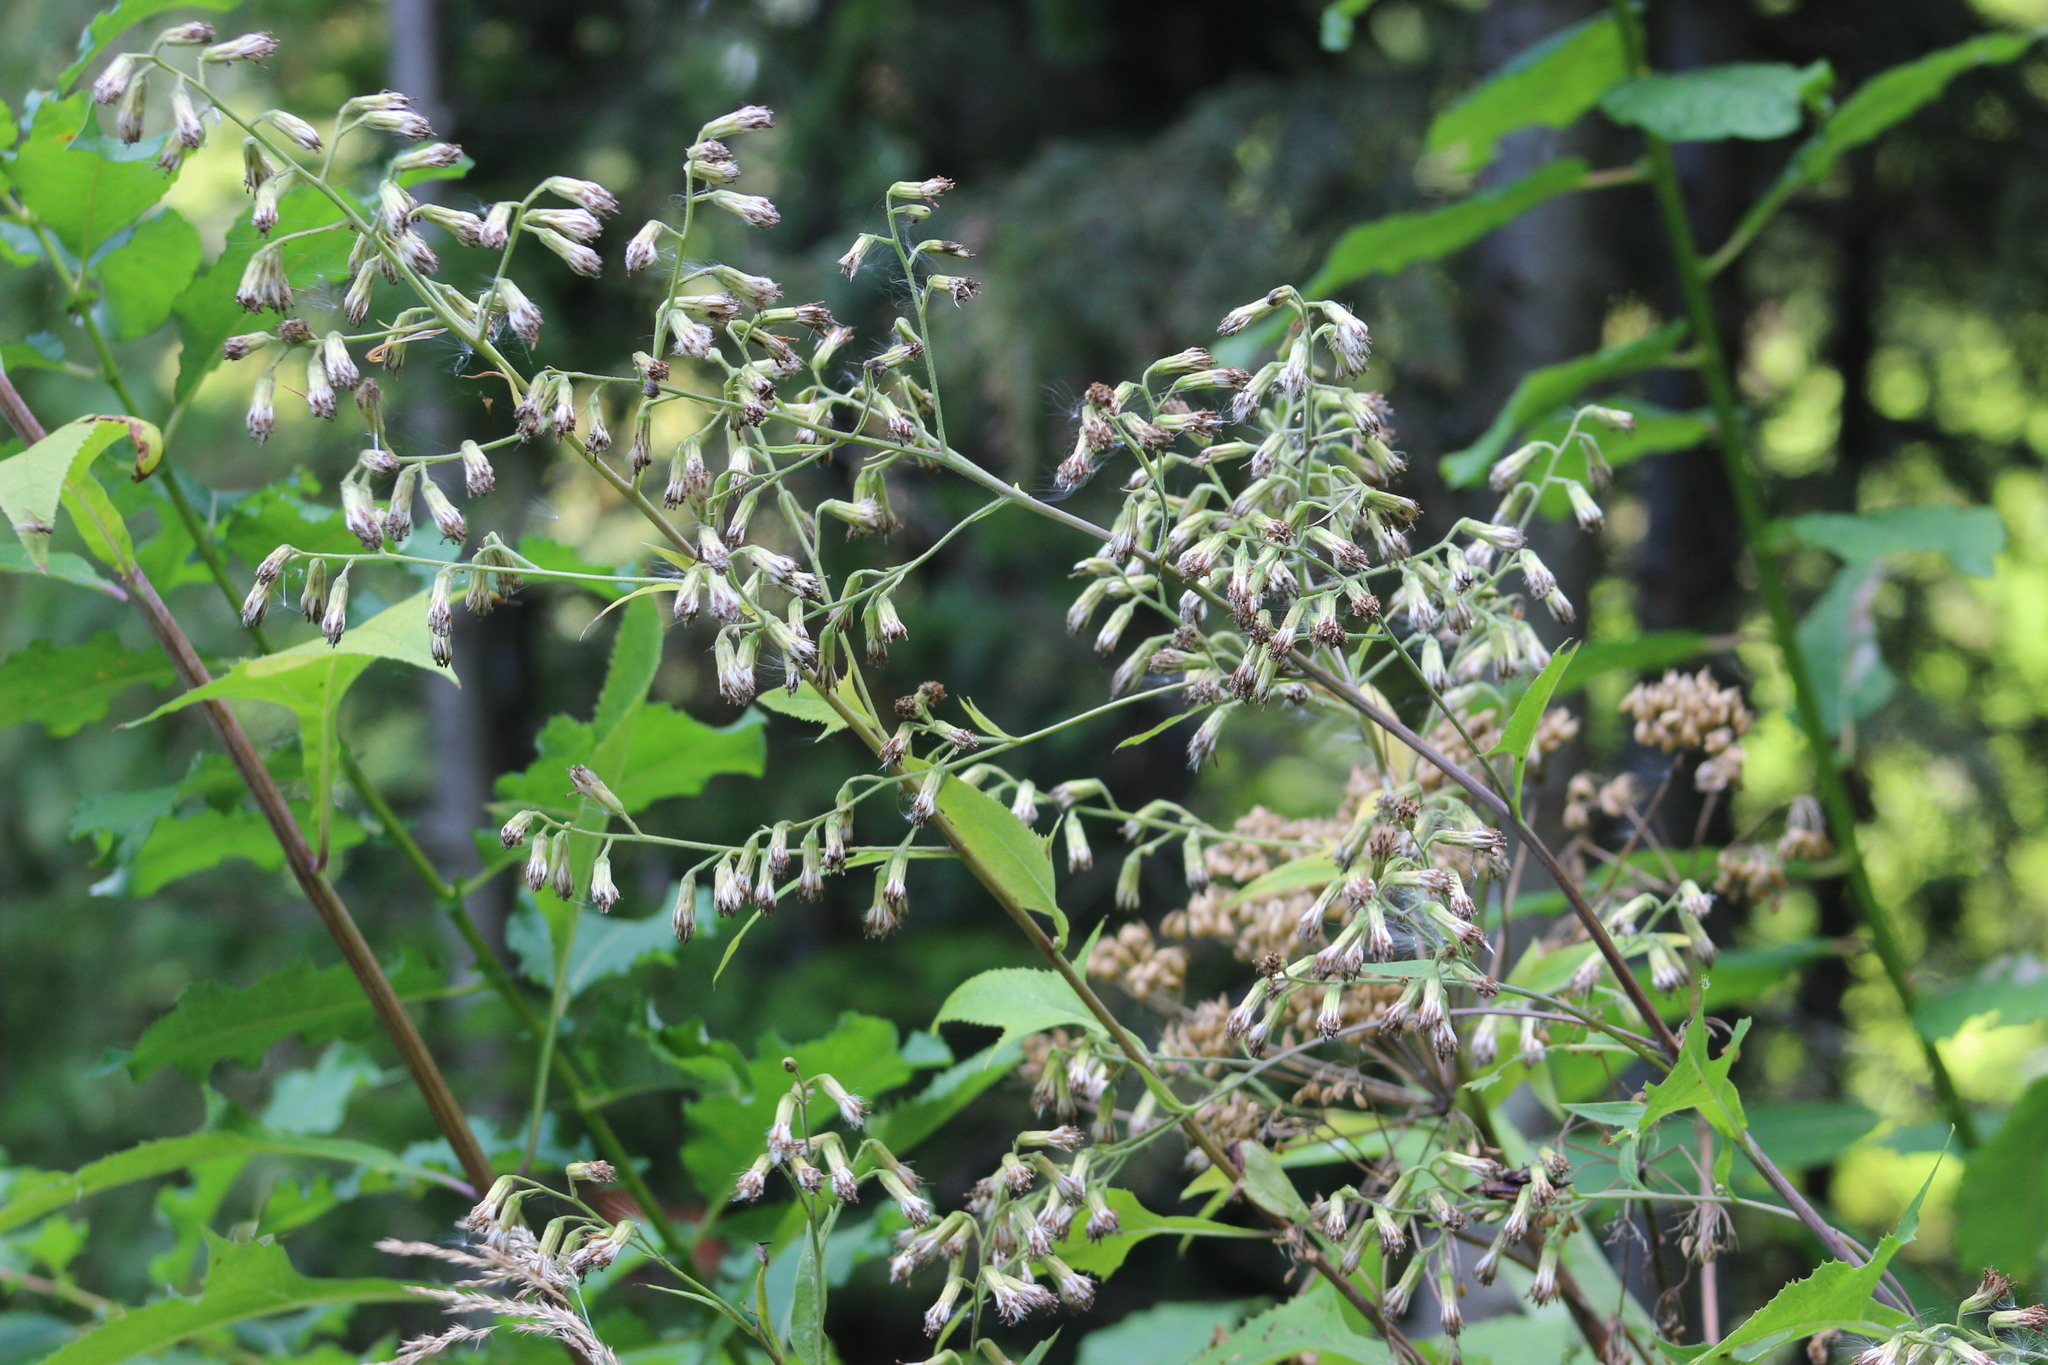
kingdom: Plantae
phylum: Tracheophyta
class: Magnoliopsida
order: Asterales
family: Asteraceae
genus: Parasenecio
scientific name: Parasenecio hastatus
